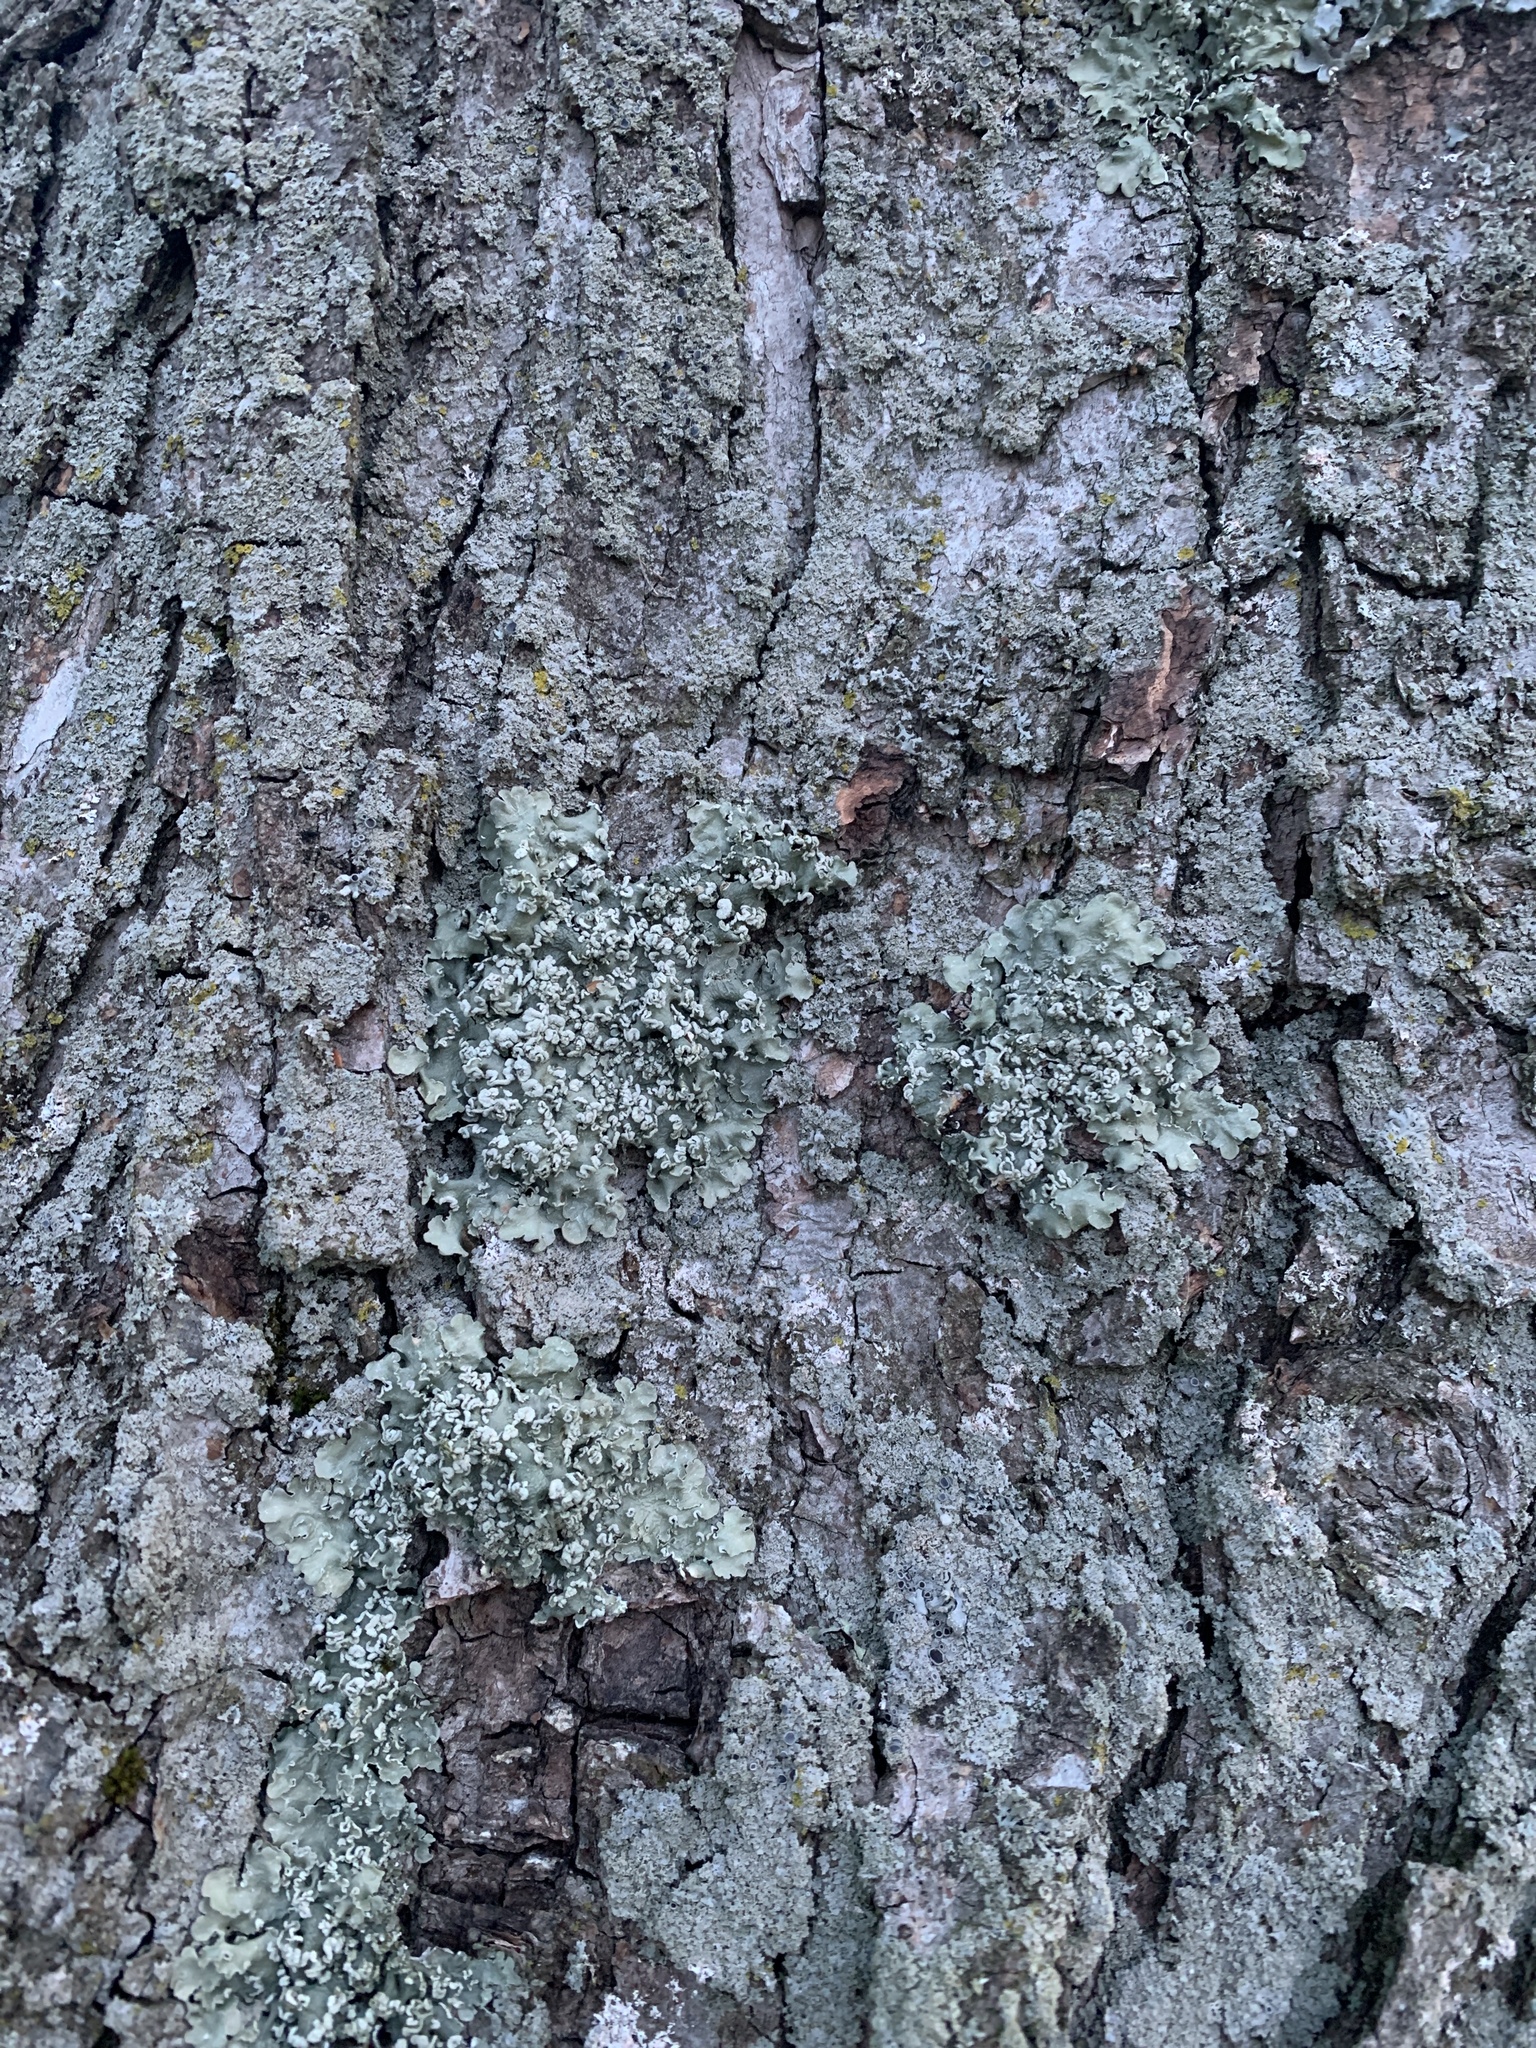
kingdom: Fungi
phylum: Ascomycota
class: Lecanoromycetes
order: Lecanorales
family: Parmeliaceae
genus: Flavopunctelia
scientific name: Flavopunctelia soredica
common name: Powder-edged speckled greenshield
